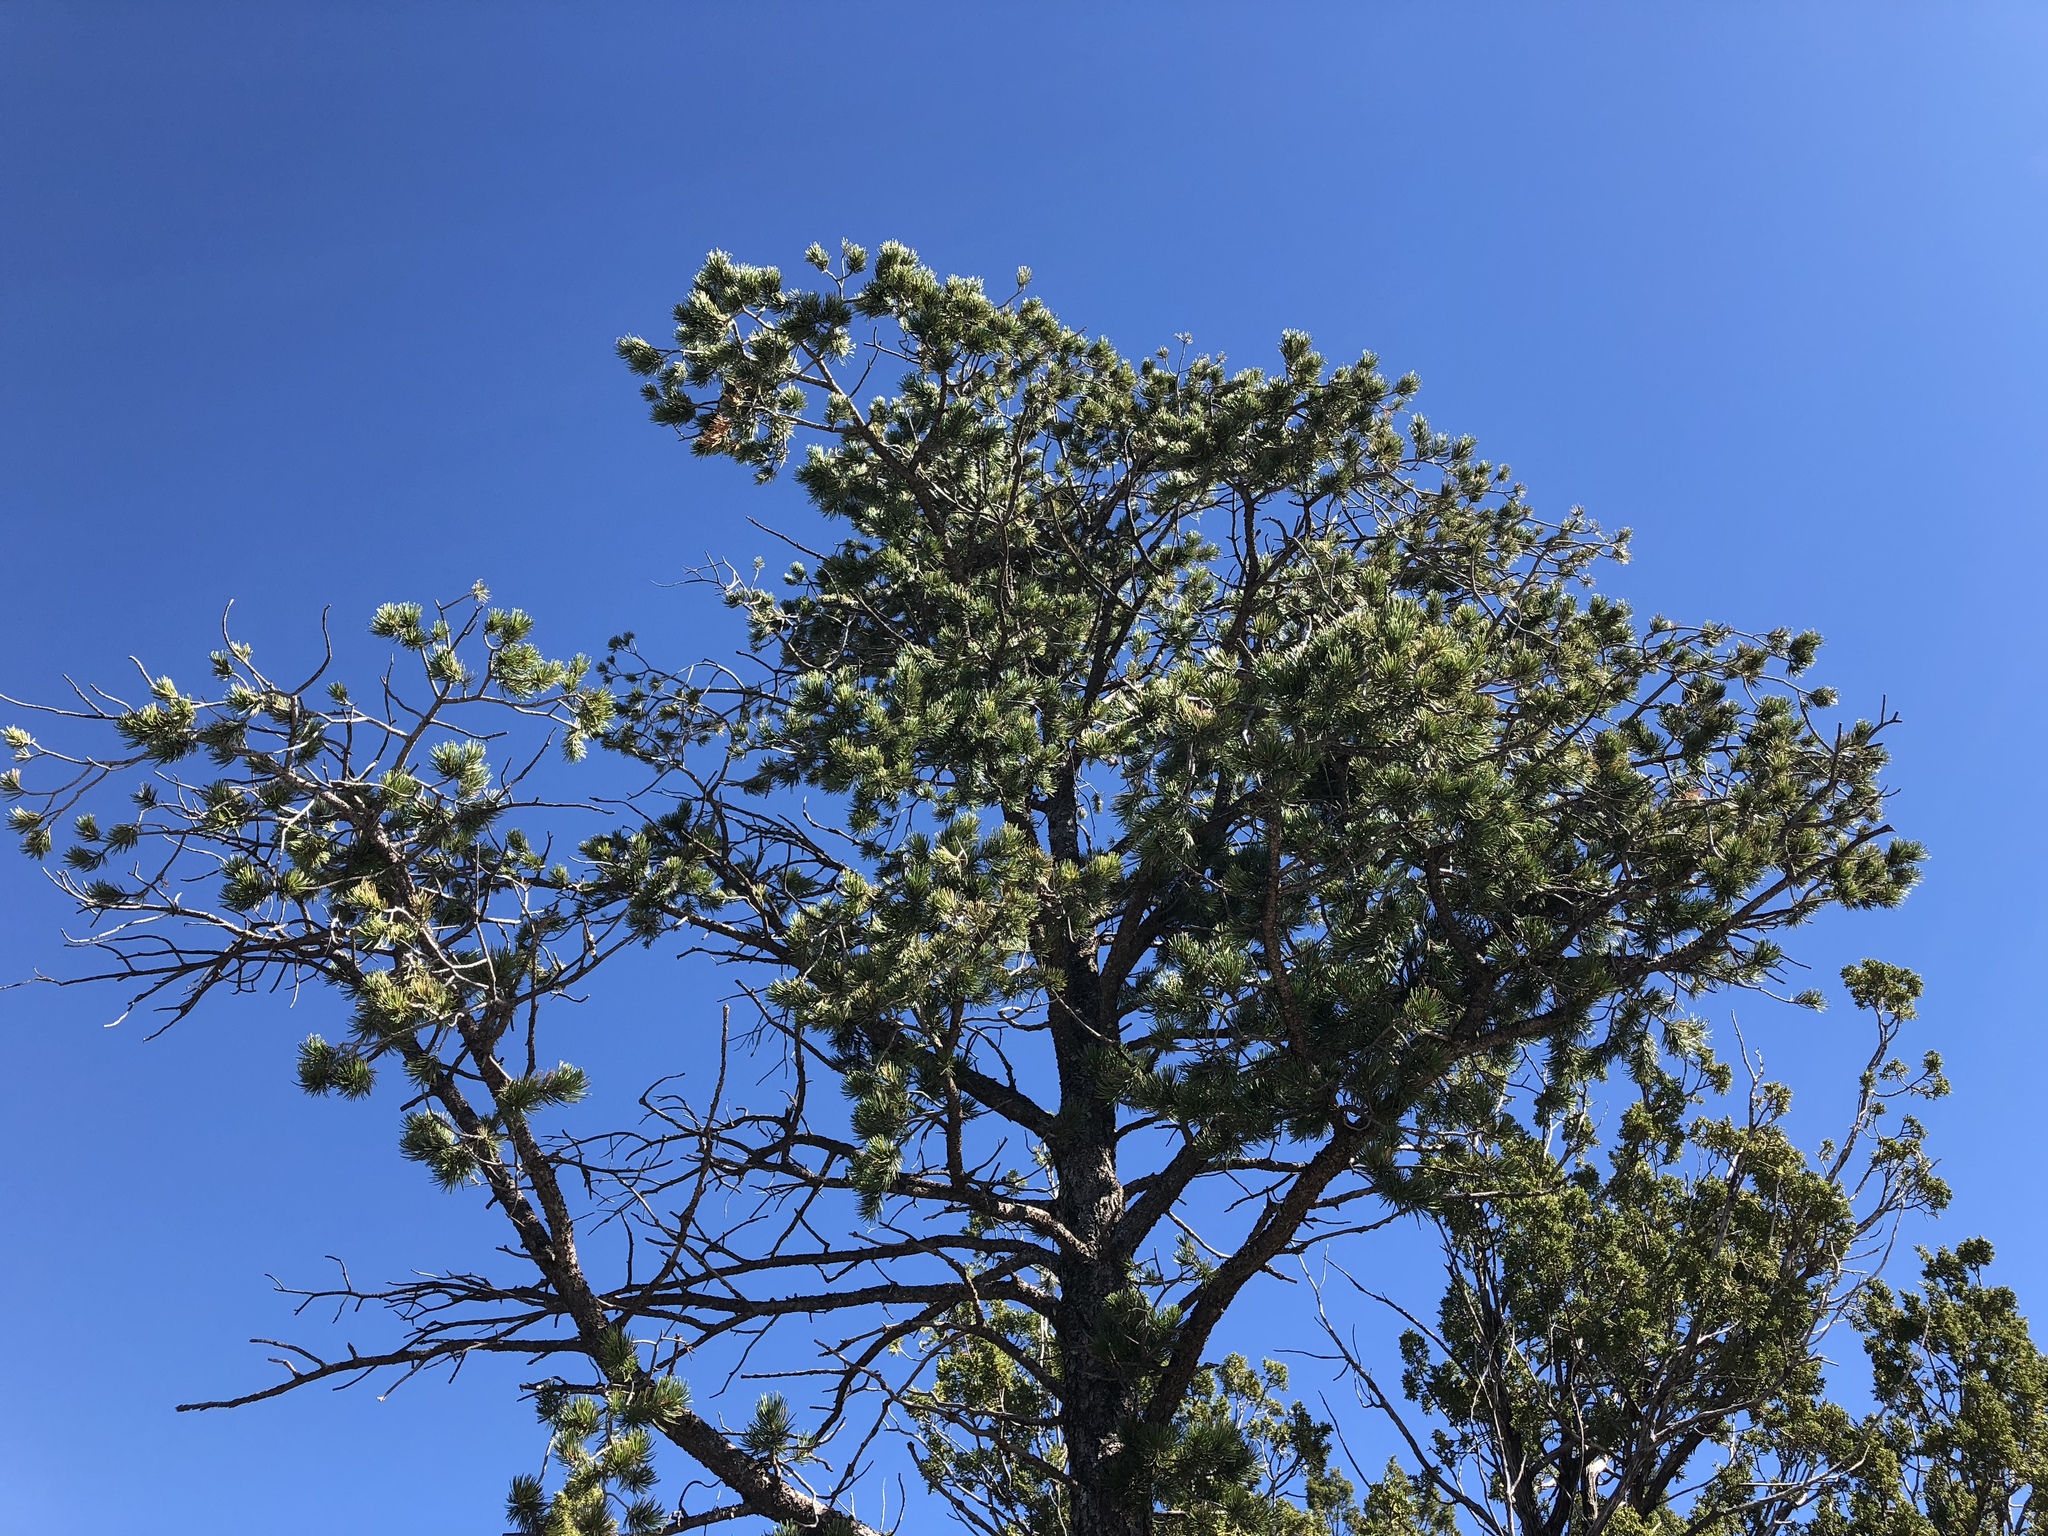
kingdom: Plantae
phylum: Tracheophyta
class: Pinopsida
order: Pinales
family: Pinaceae
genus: Pinus
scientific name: Pinus edulis
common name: Colorado pinyon
